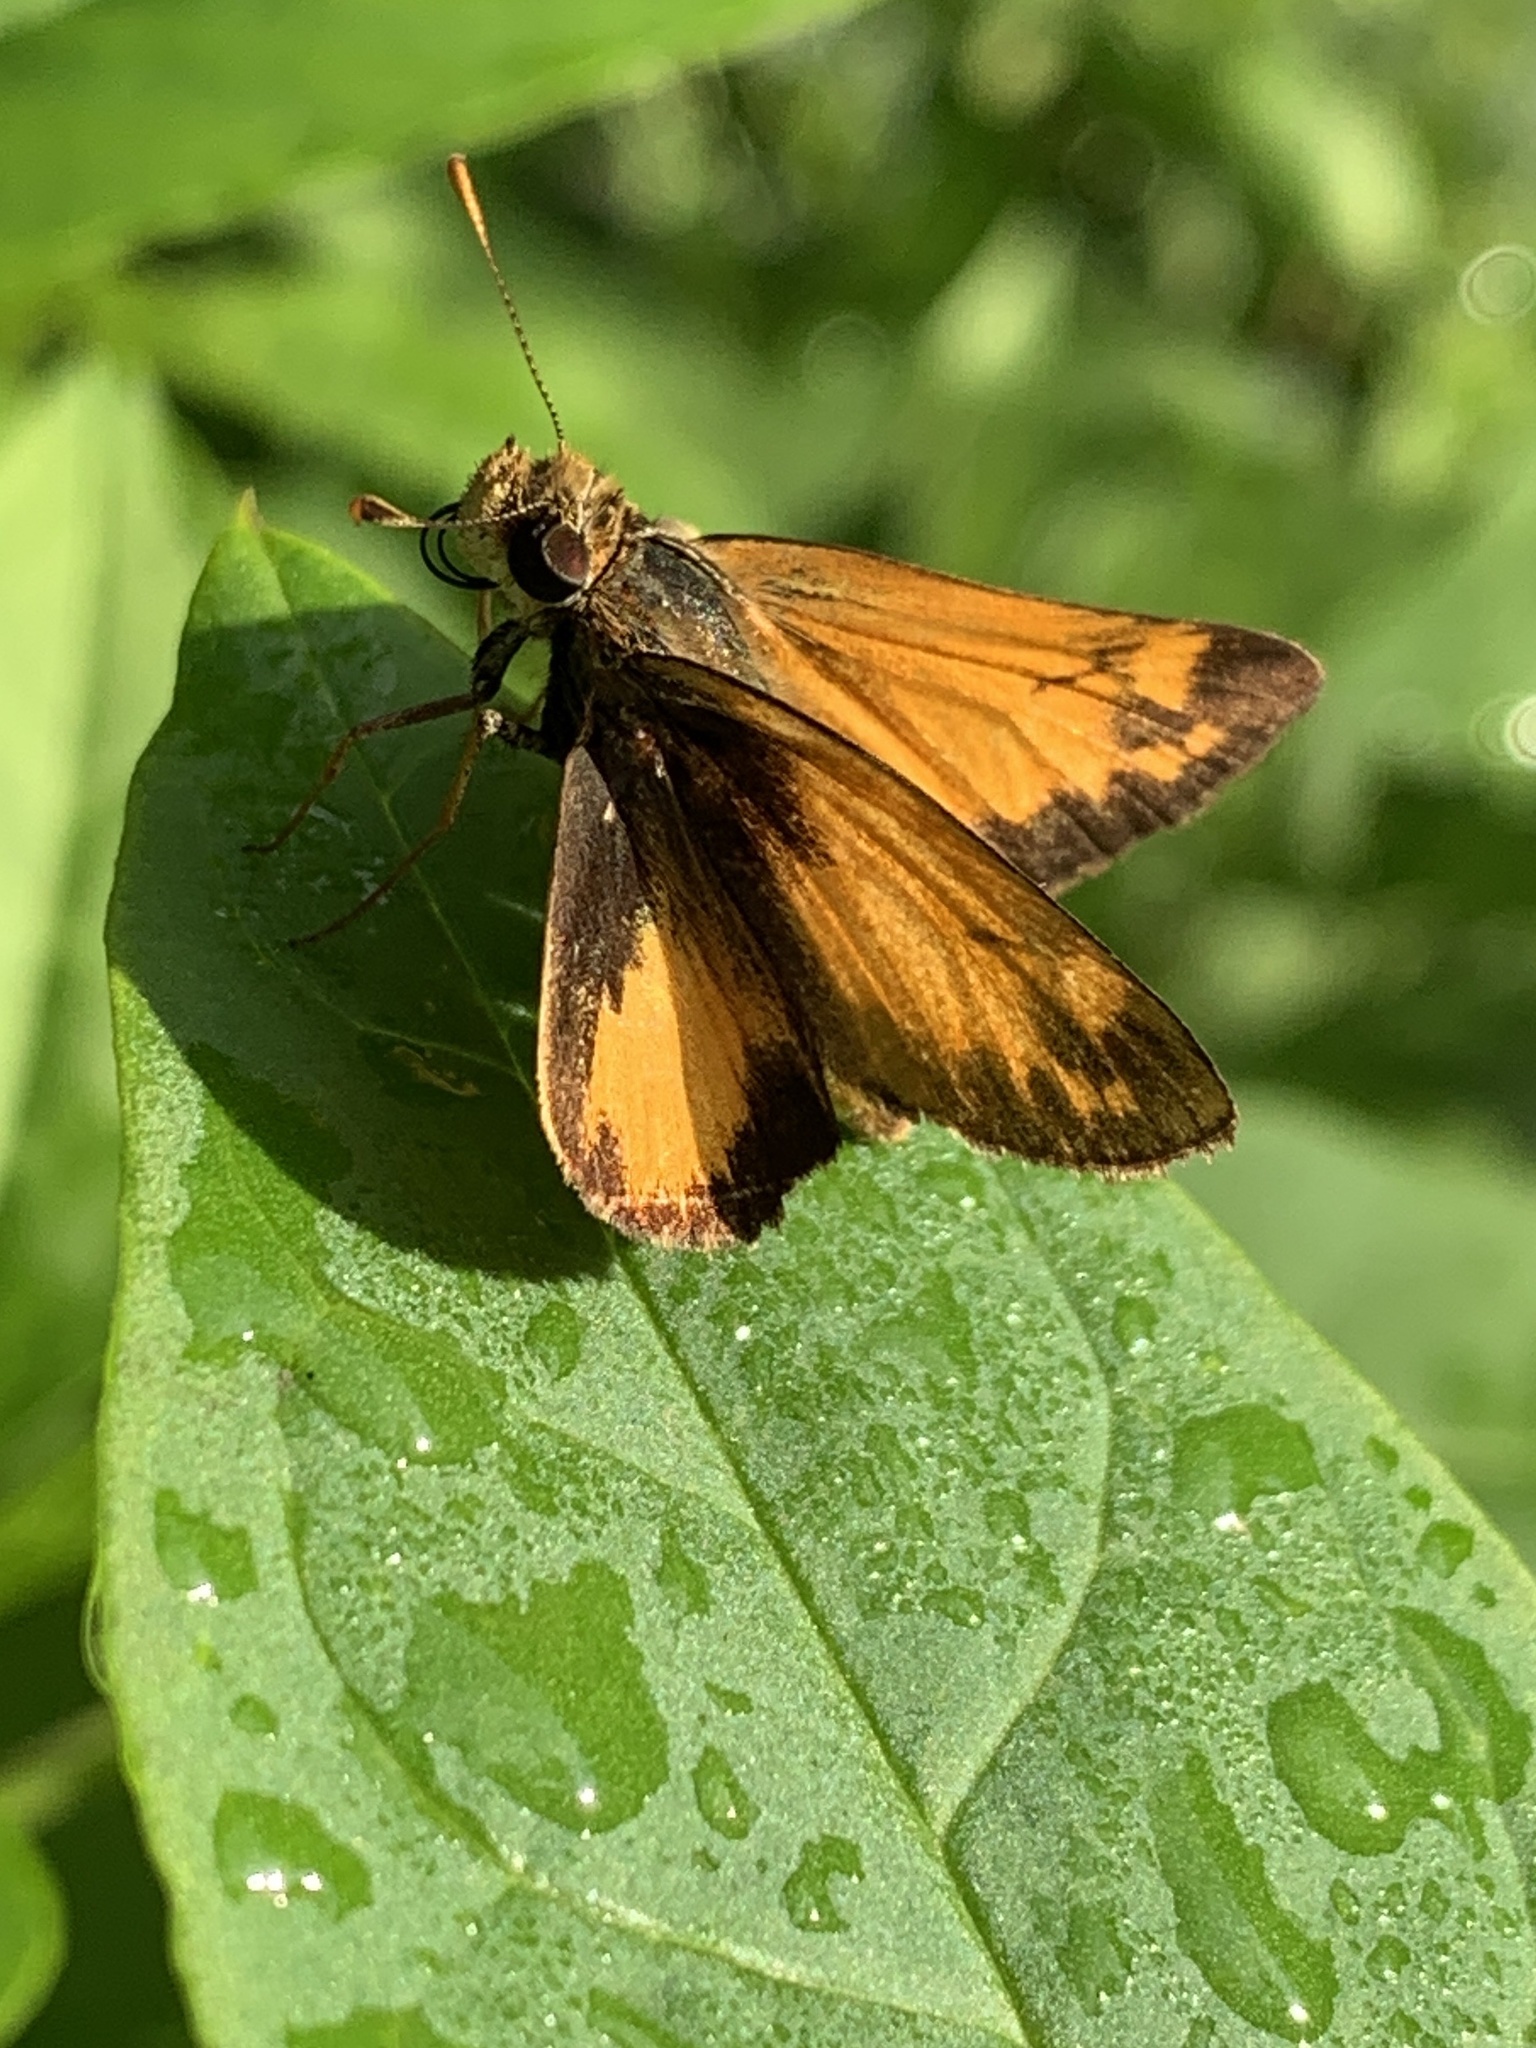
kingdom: Animalia
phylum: Arthropoda
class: Insecta
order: Lepidoptera
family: Hesperiidae
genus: Lon
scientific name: Lon zabulon
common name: Zabulon skipper
